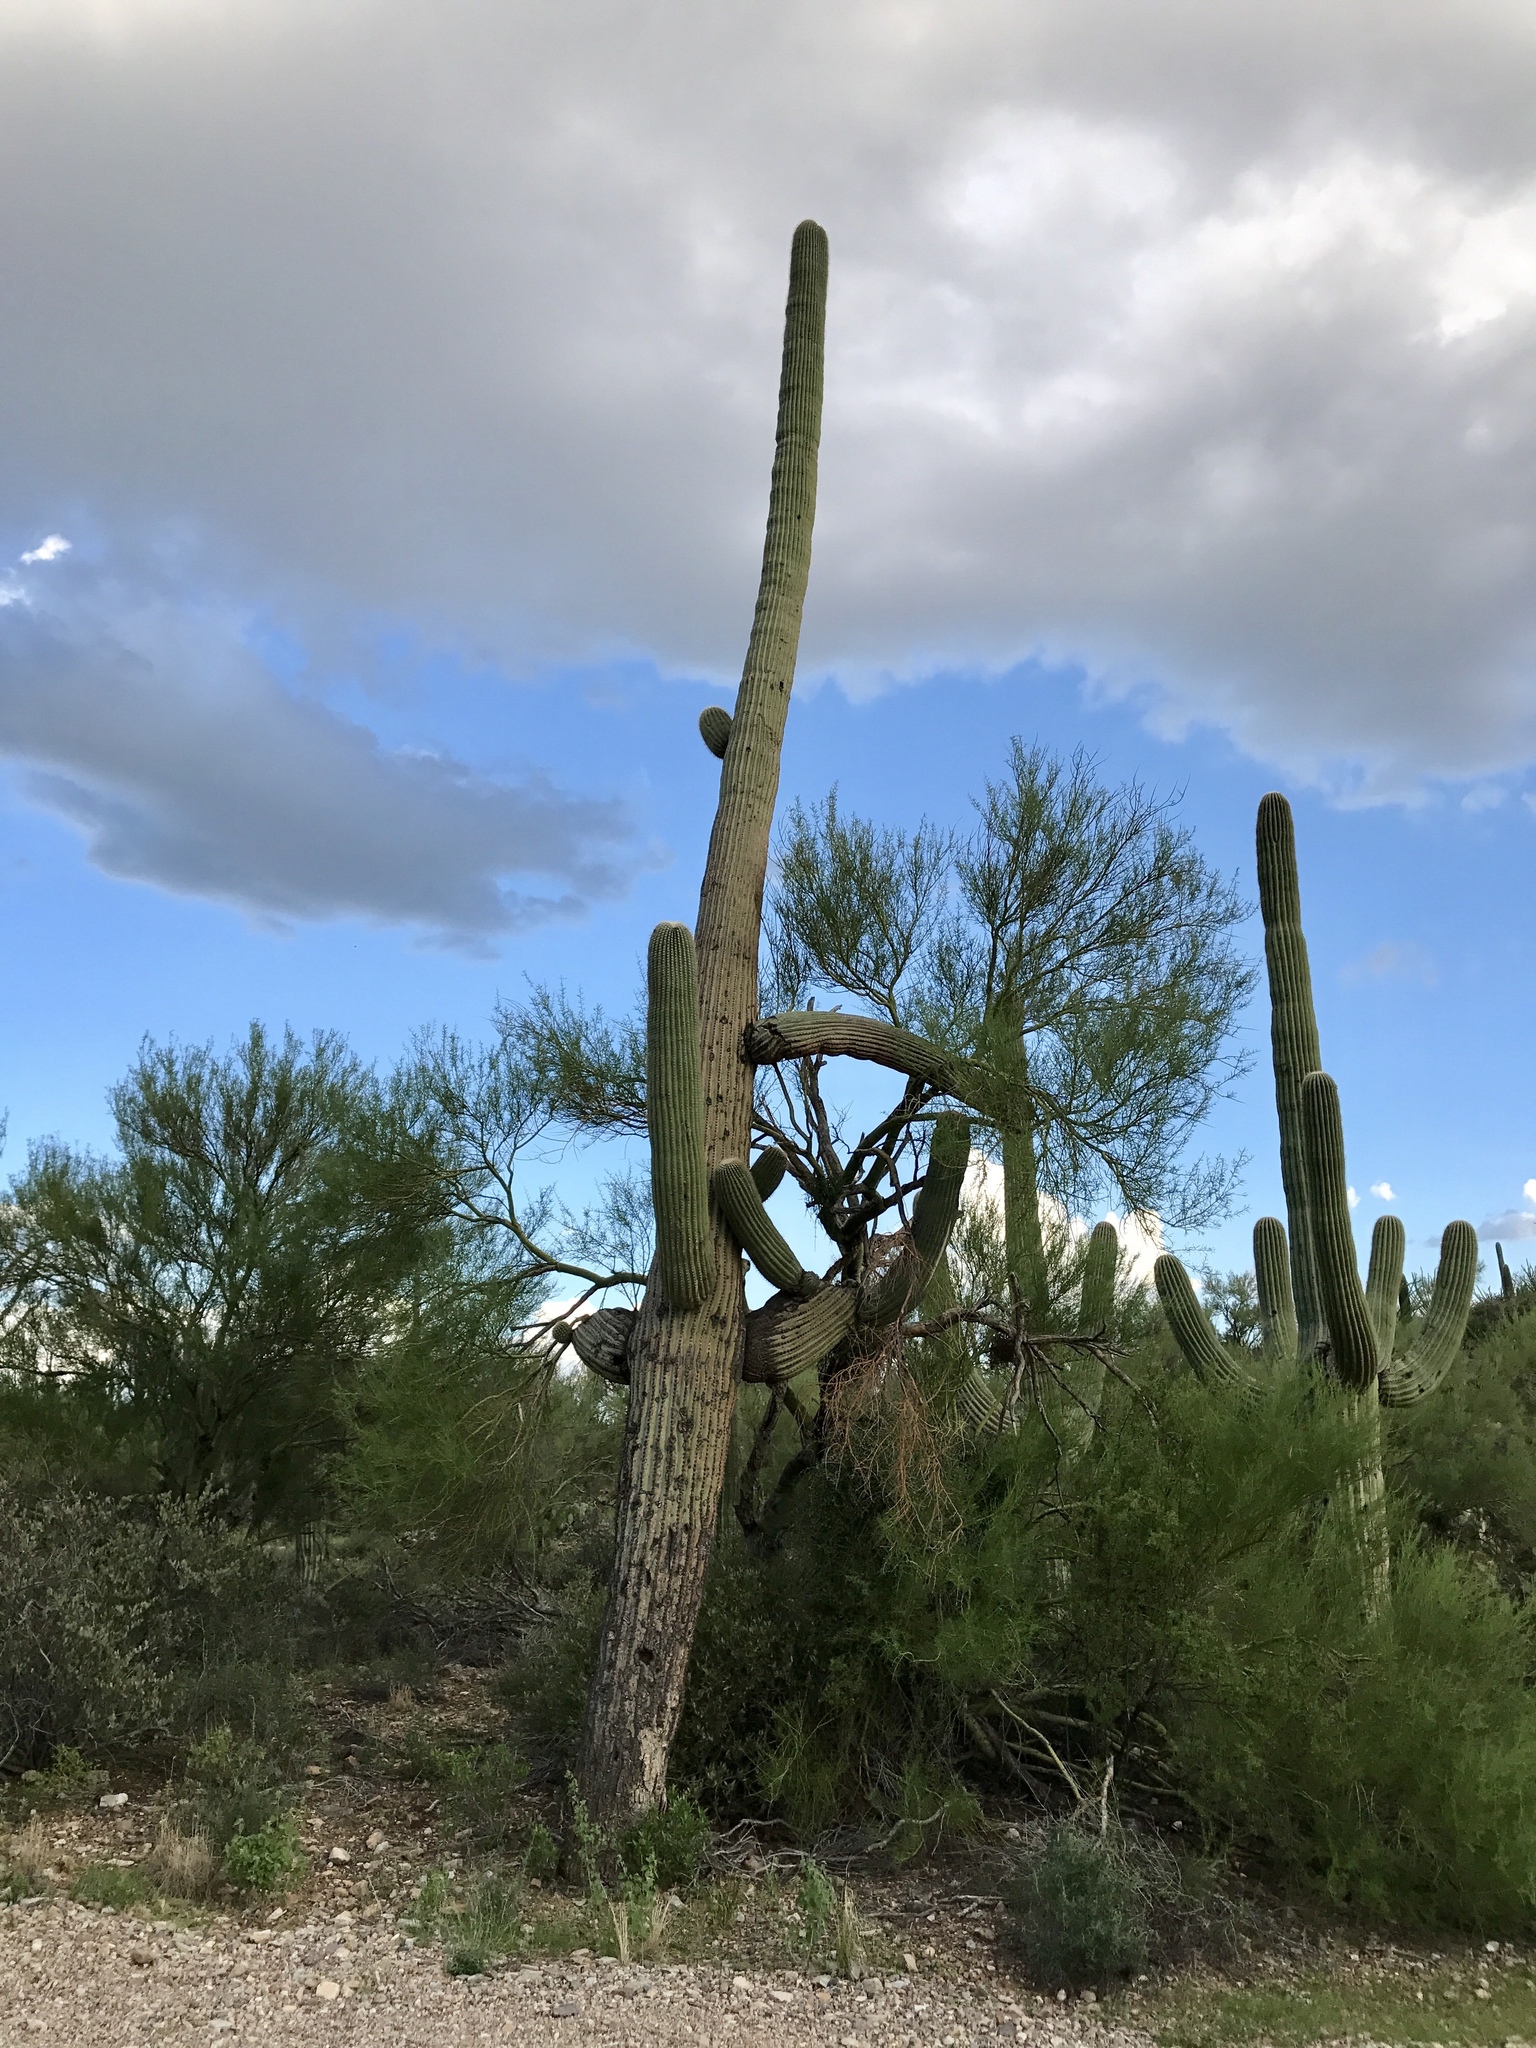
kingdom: Plantae
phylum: Tracheophyta
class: Magnoliopsida
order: Caryophyllales
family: Cactaceae
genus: Carnegiea
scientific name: Carnegiea gigantea
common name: Saguaro
